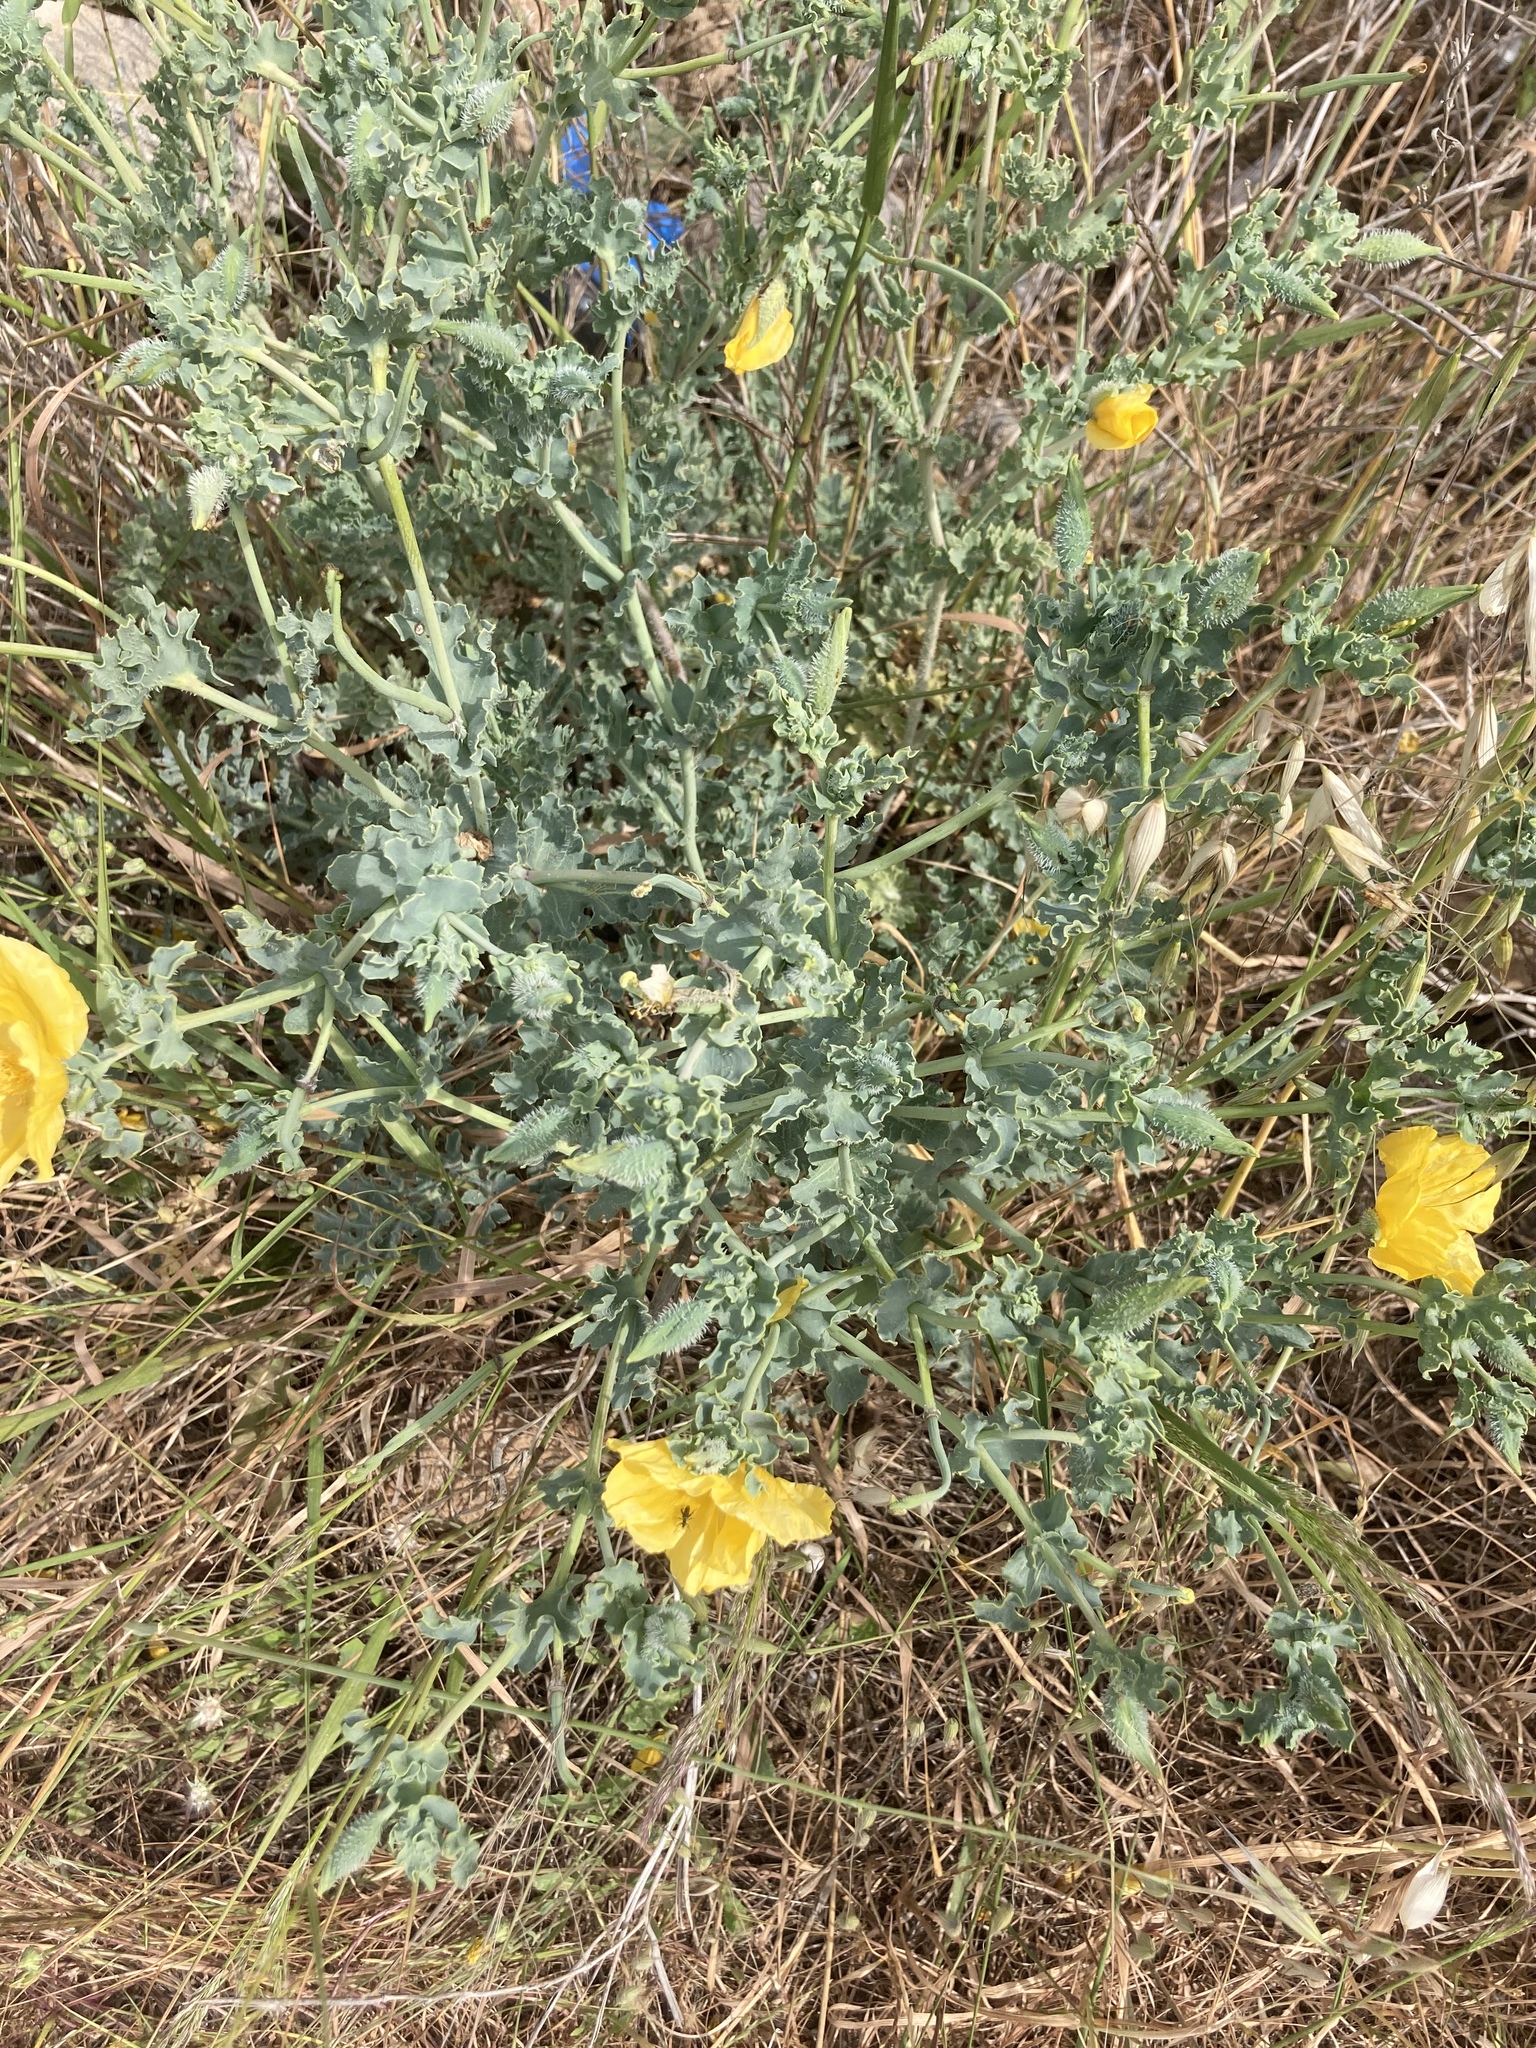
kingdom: Plantae
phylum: Tracheophyta
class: Magnoliopsida
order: Ranunculales
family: Papaveraceae
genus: Glaucium
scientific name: Glaucium flavum
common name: Yellow horned-poppy
